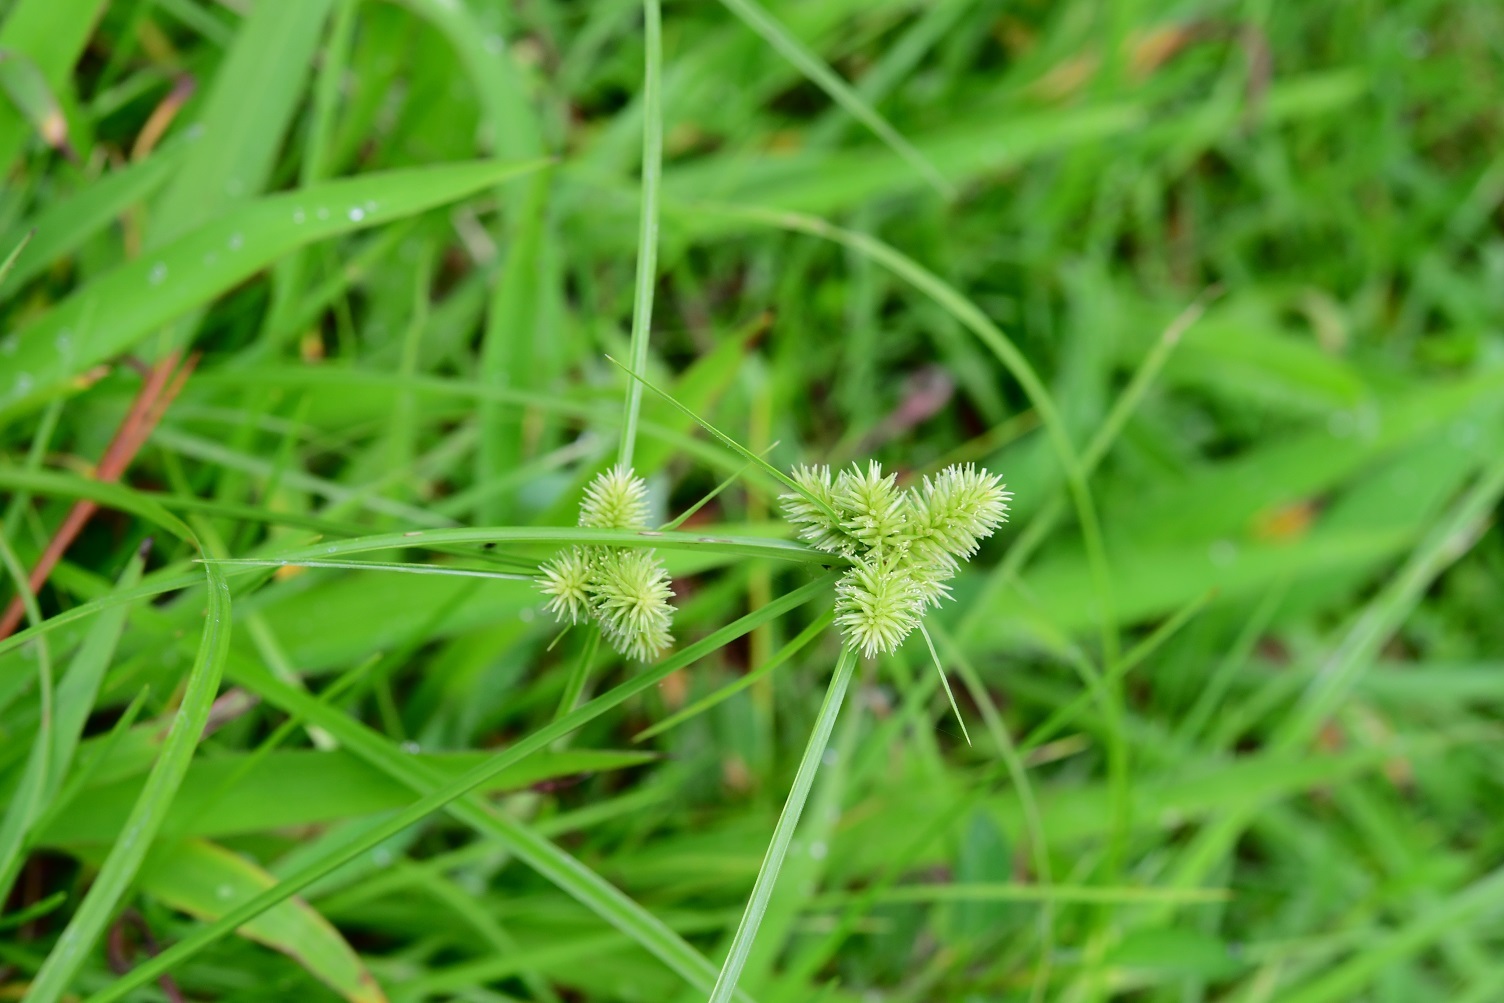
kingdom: Plantae
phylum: Tracheophyta
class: Liliopsida
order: Poales
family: Cyperaceae
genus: Cyperus
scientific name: Cyperus svensonii
